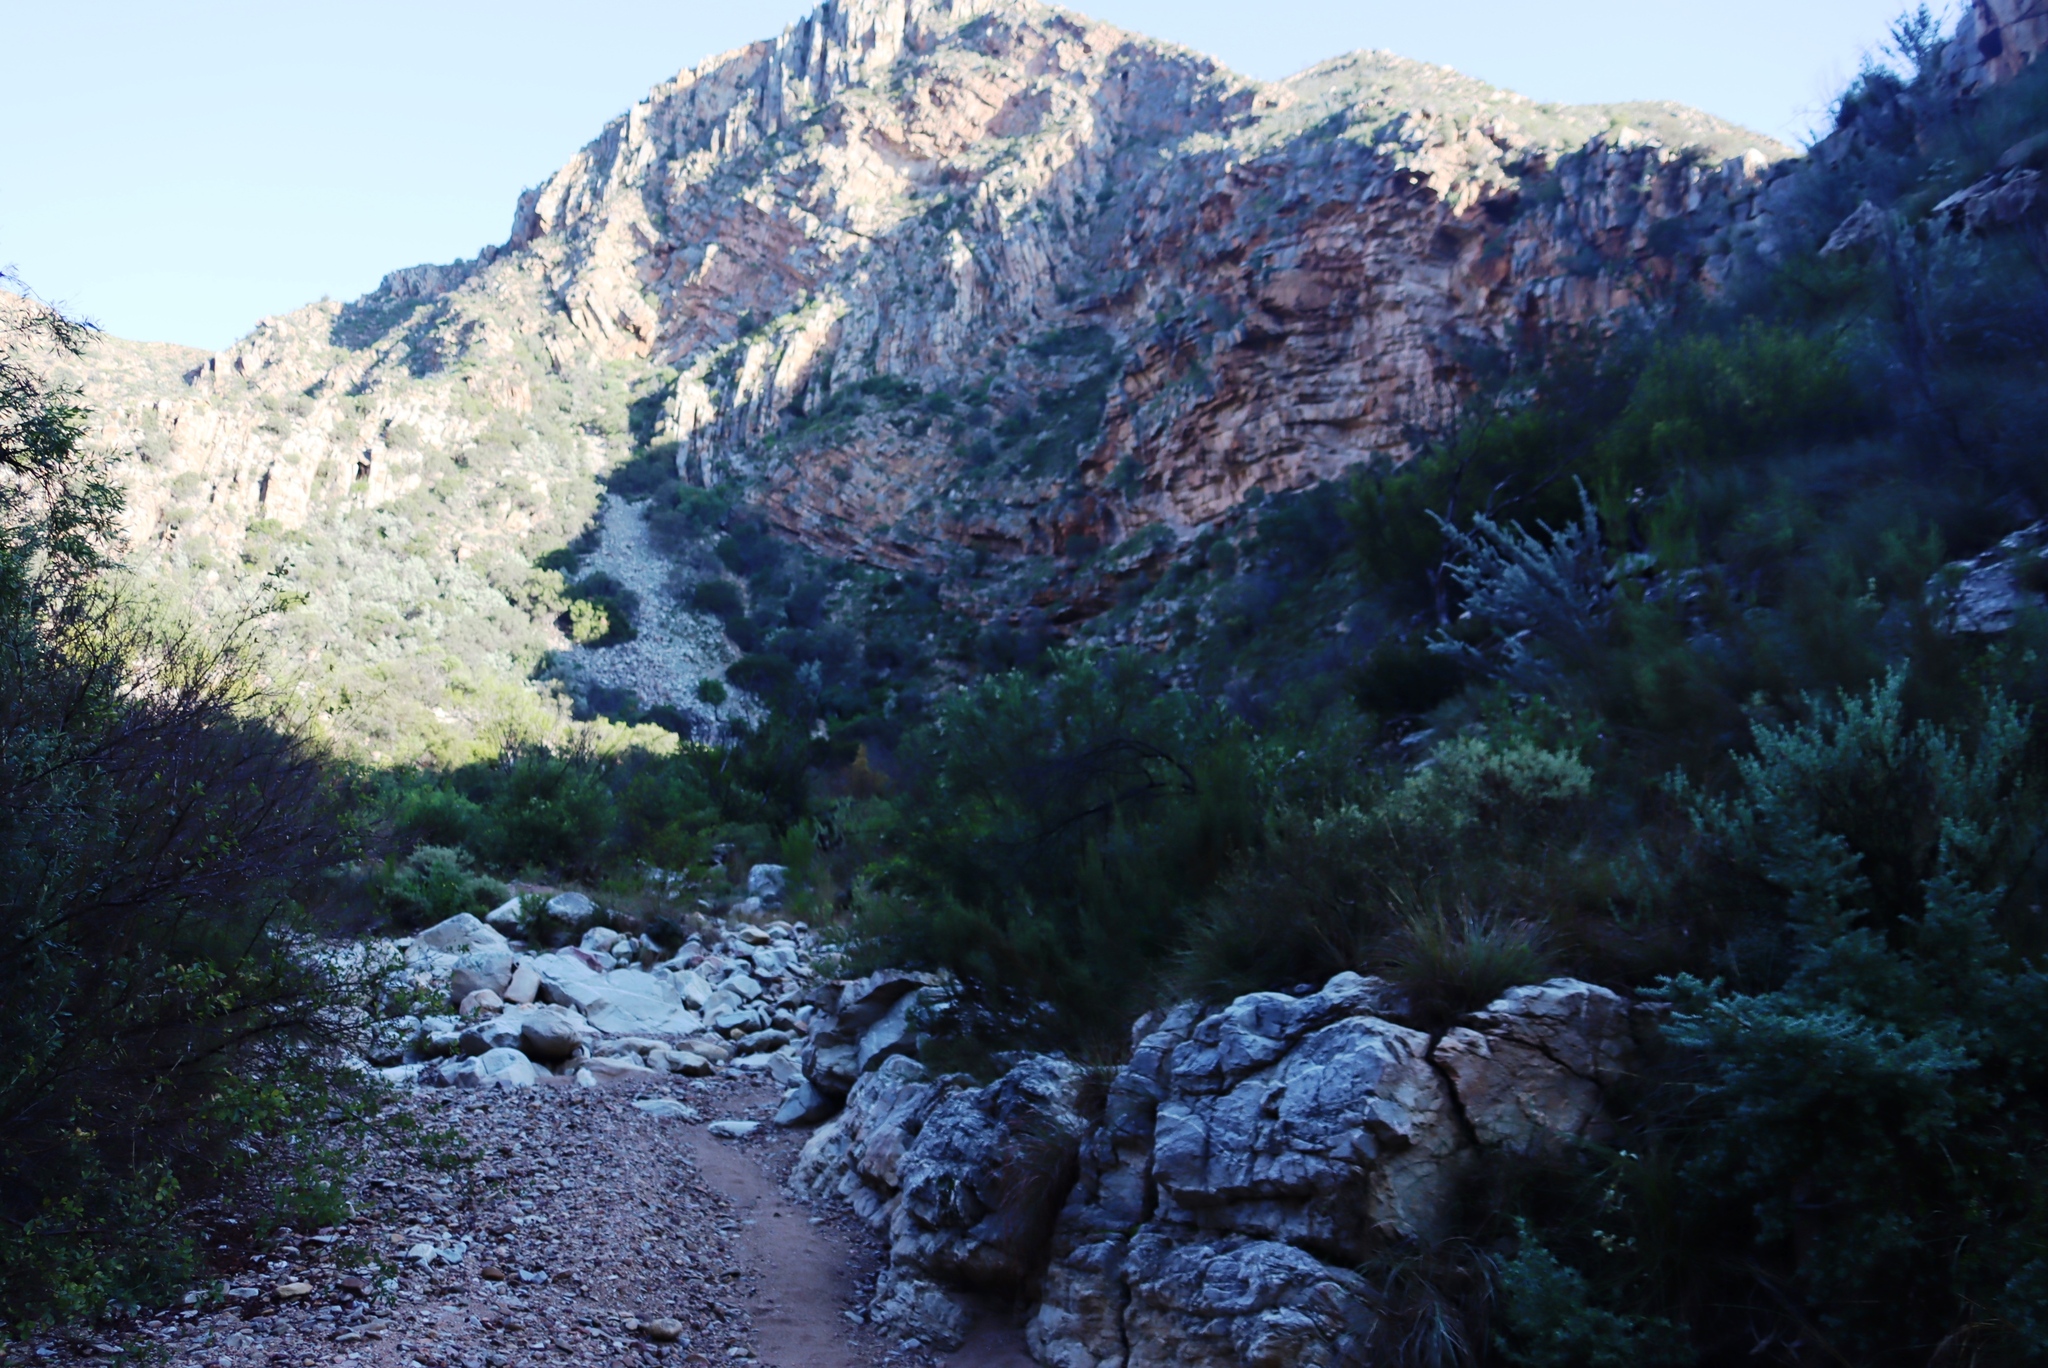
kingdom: Plantae
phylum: Tracheophyta
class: Magnoliopsida
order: Asterales
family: Asteraceae
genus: Dicerothamnus
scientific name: Dicerothamnus rhinocerotis
